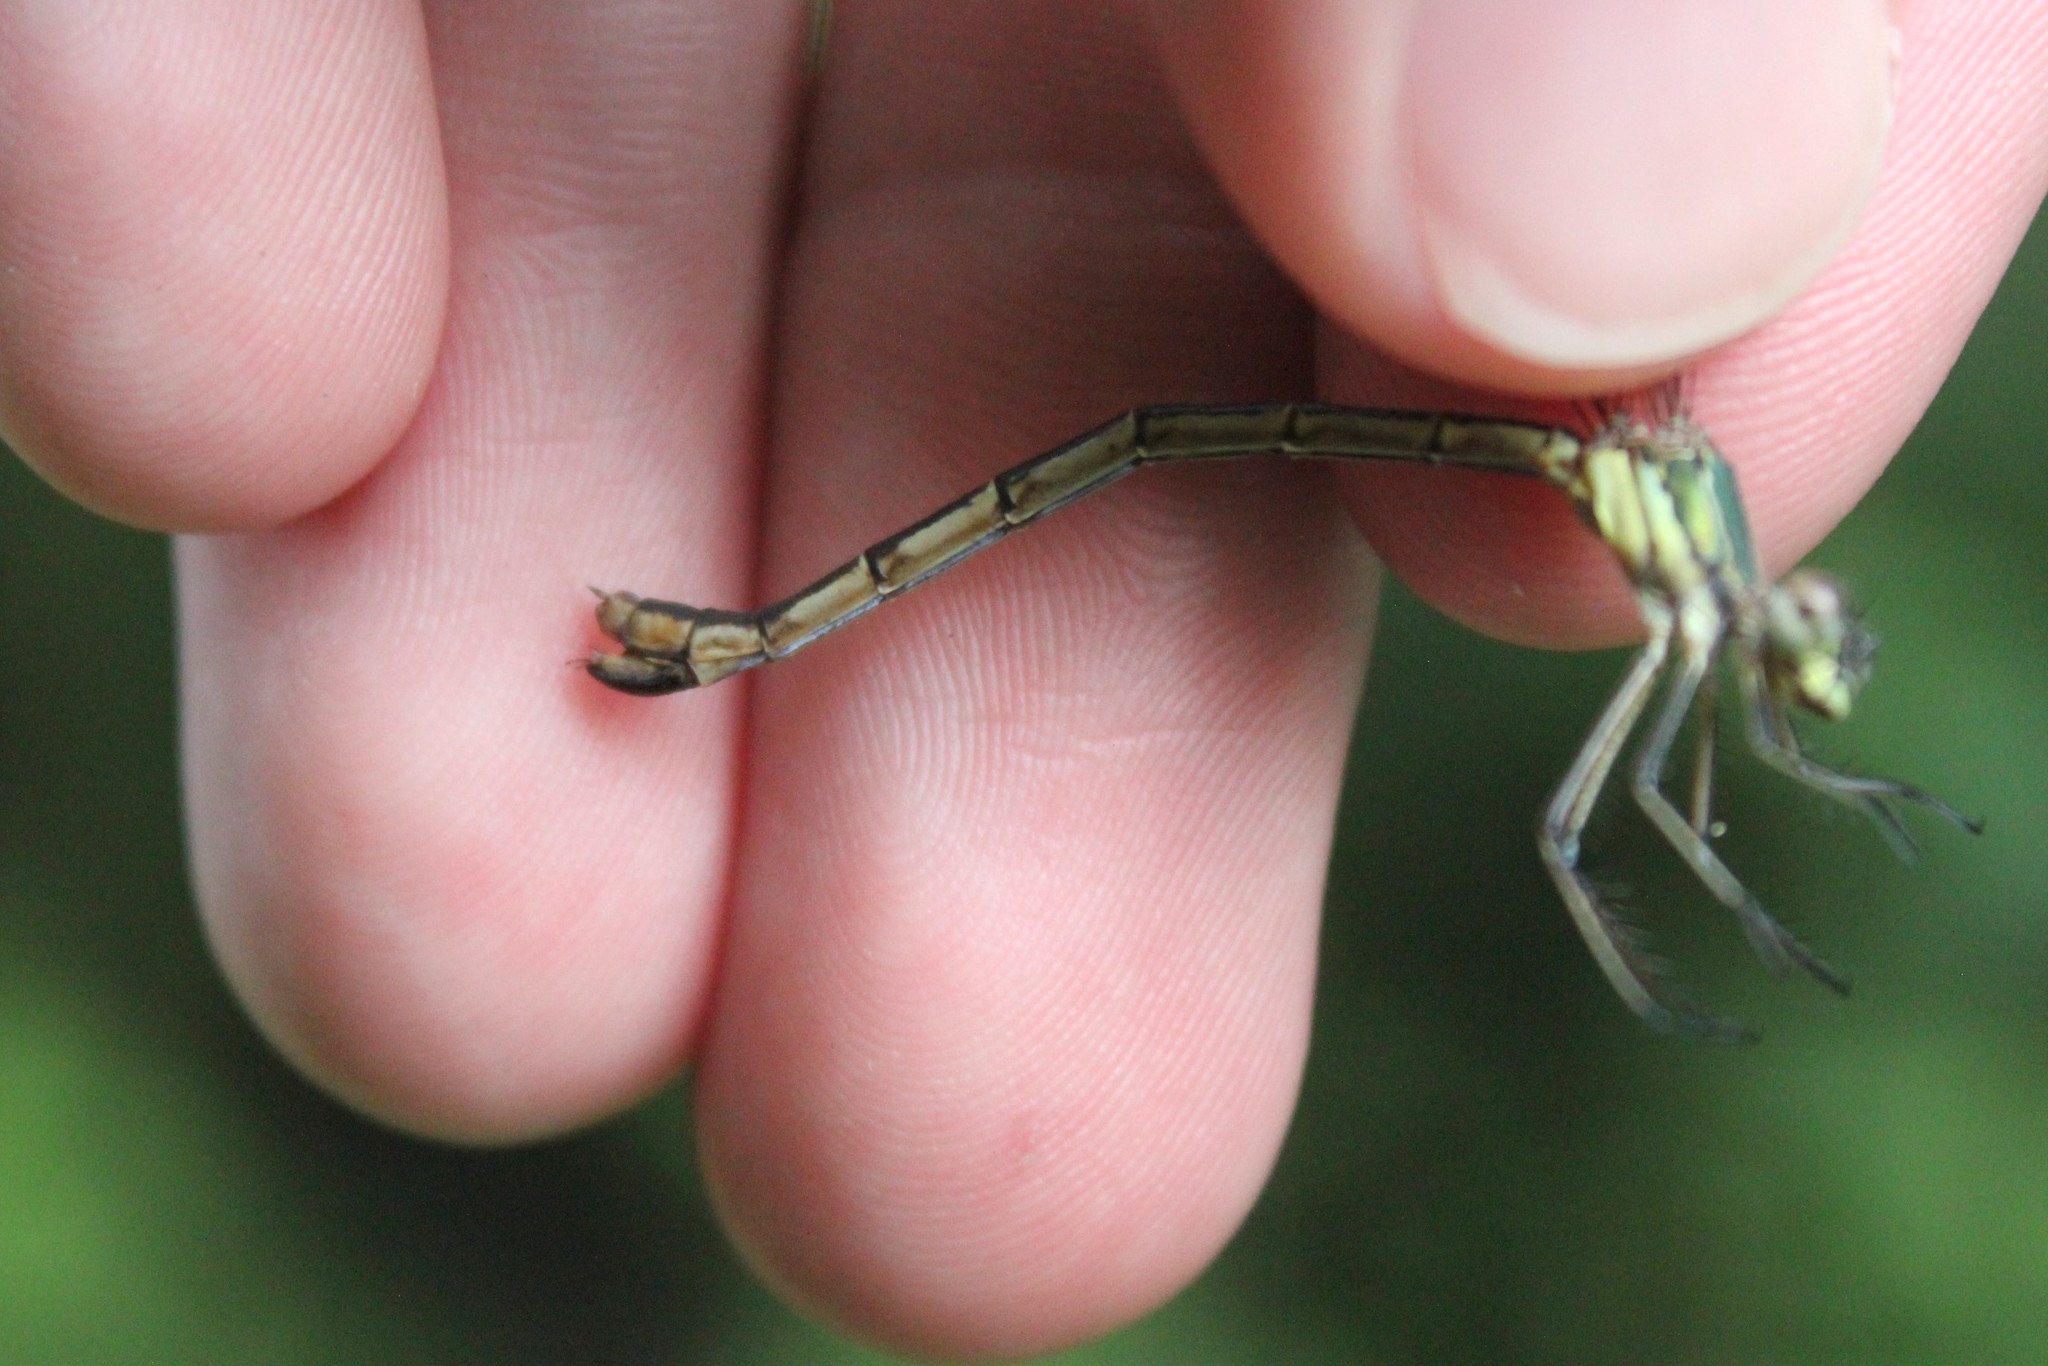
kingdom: Animalia
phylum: Arthropoda
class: Insecta
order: Odonata
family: Lestidae
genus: Lestes
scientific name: Lestes dryas
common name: Scarce emerald damselfly
